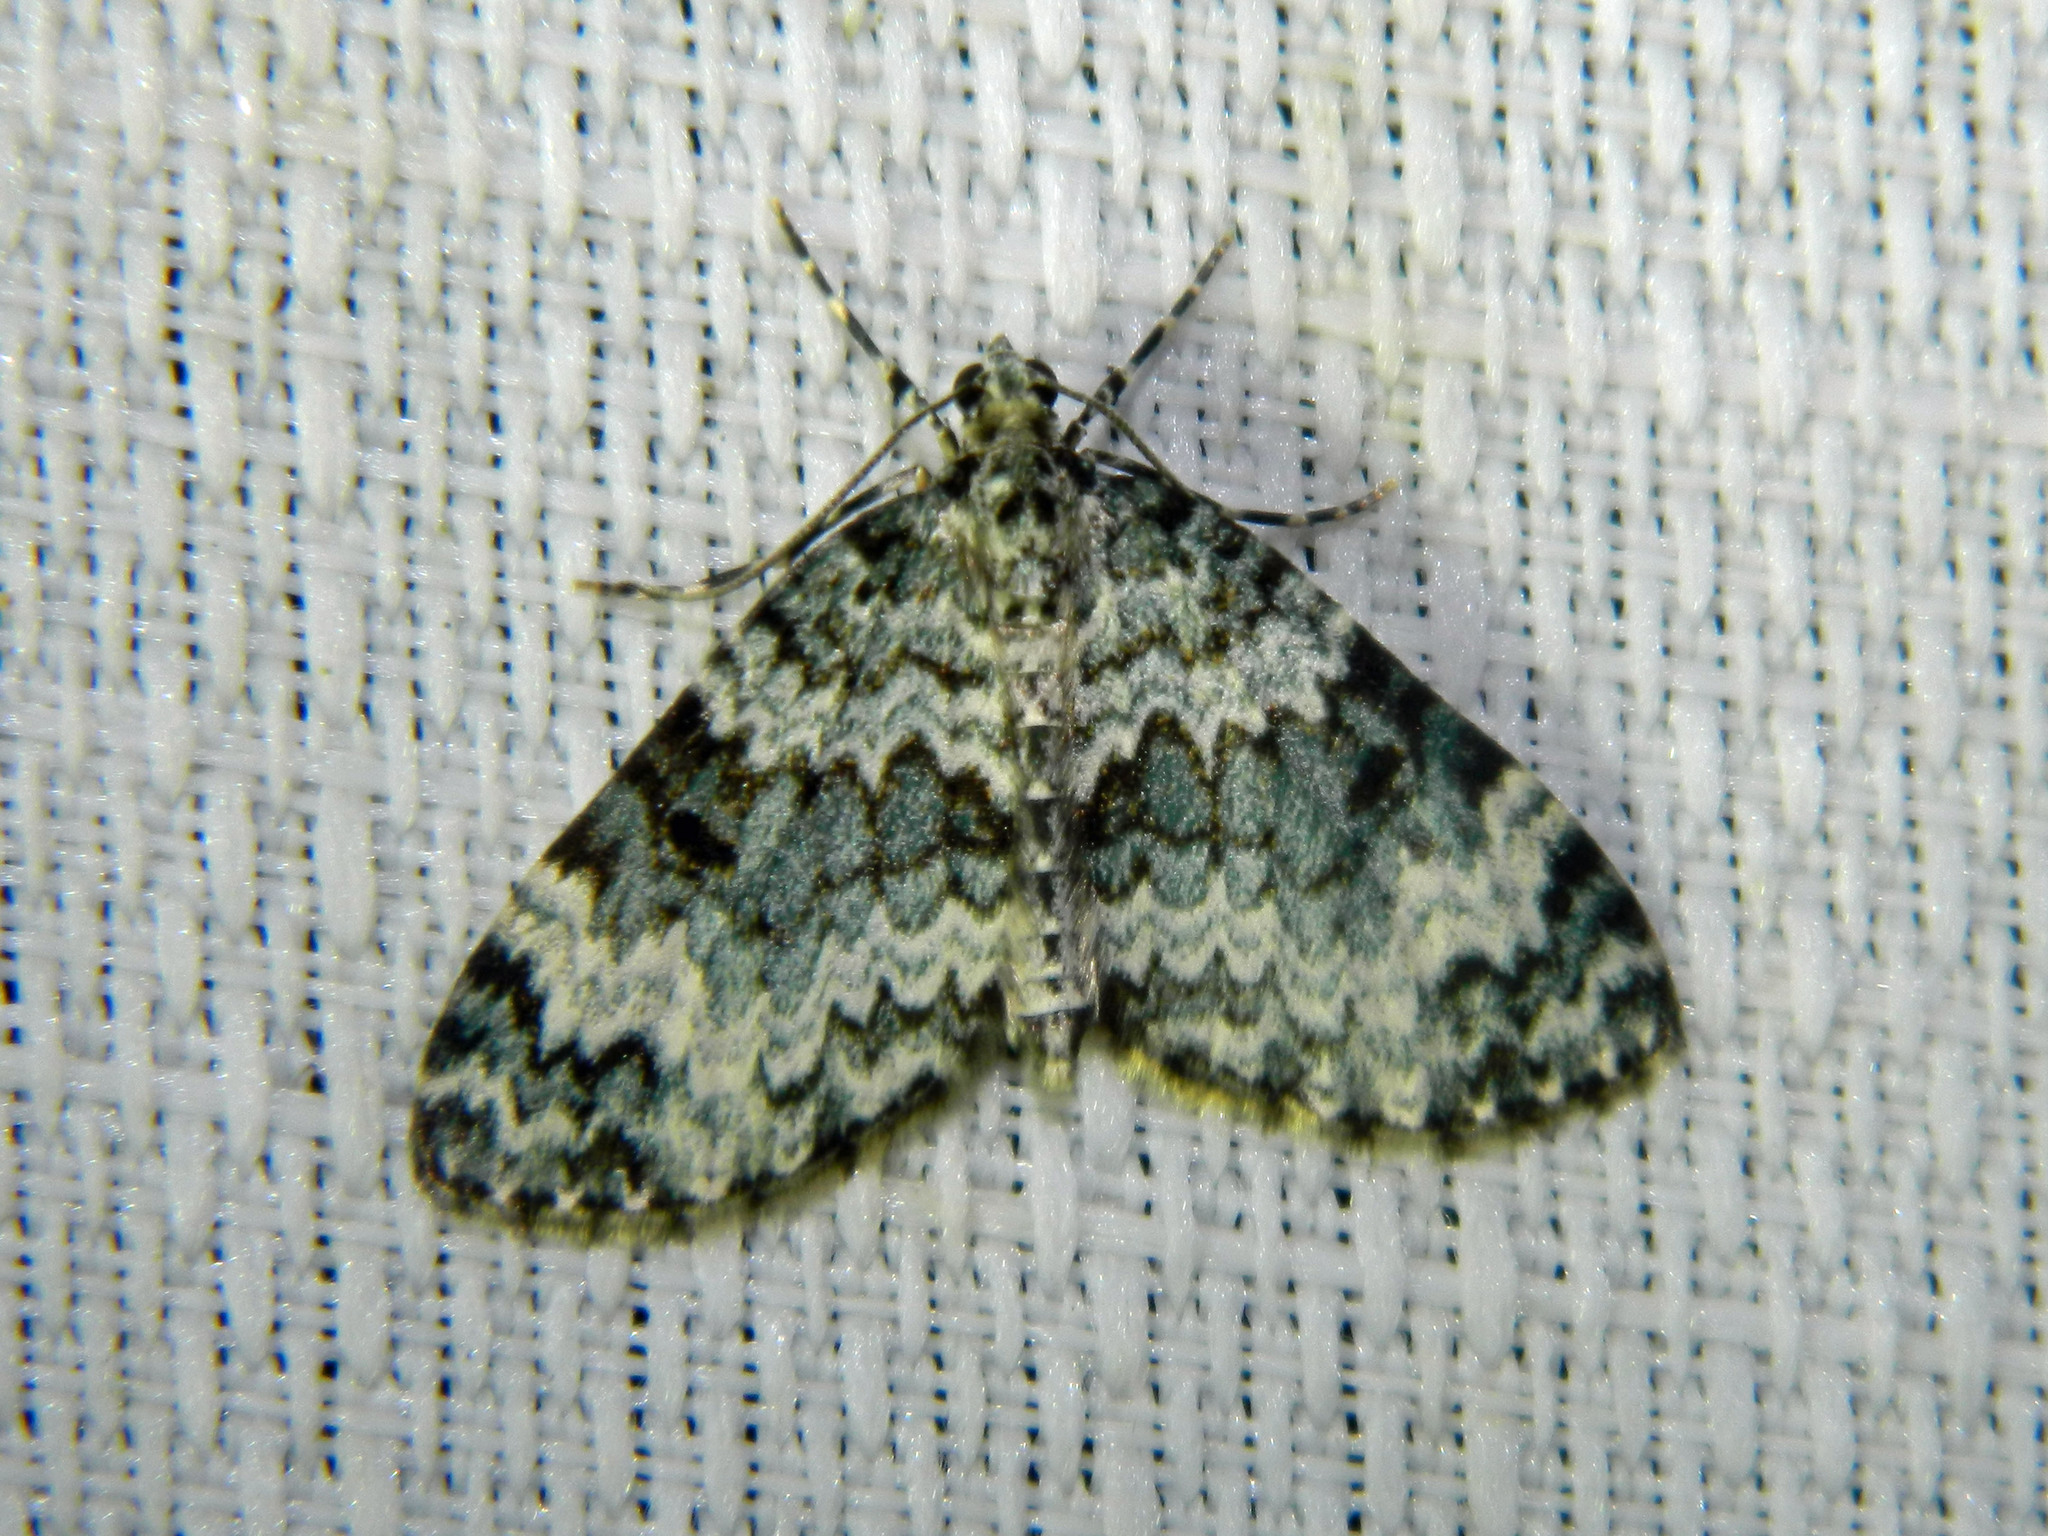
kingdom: Animalia
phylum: Arthropoda
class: Insecta
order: Lepidoptera
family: Geometridae
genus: Spargania
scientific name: Spargania magnoliata
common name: Double-banded carpet
